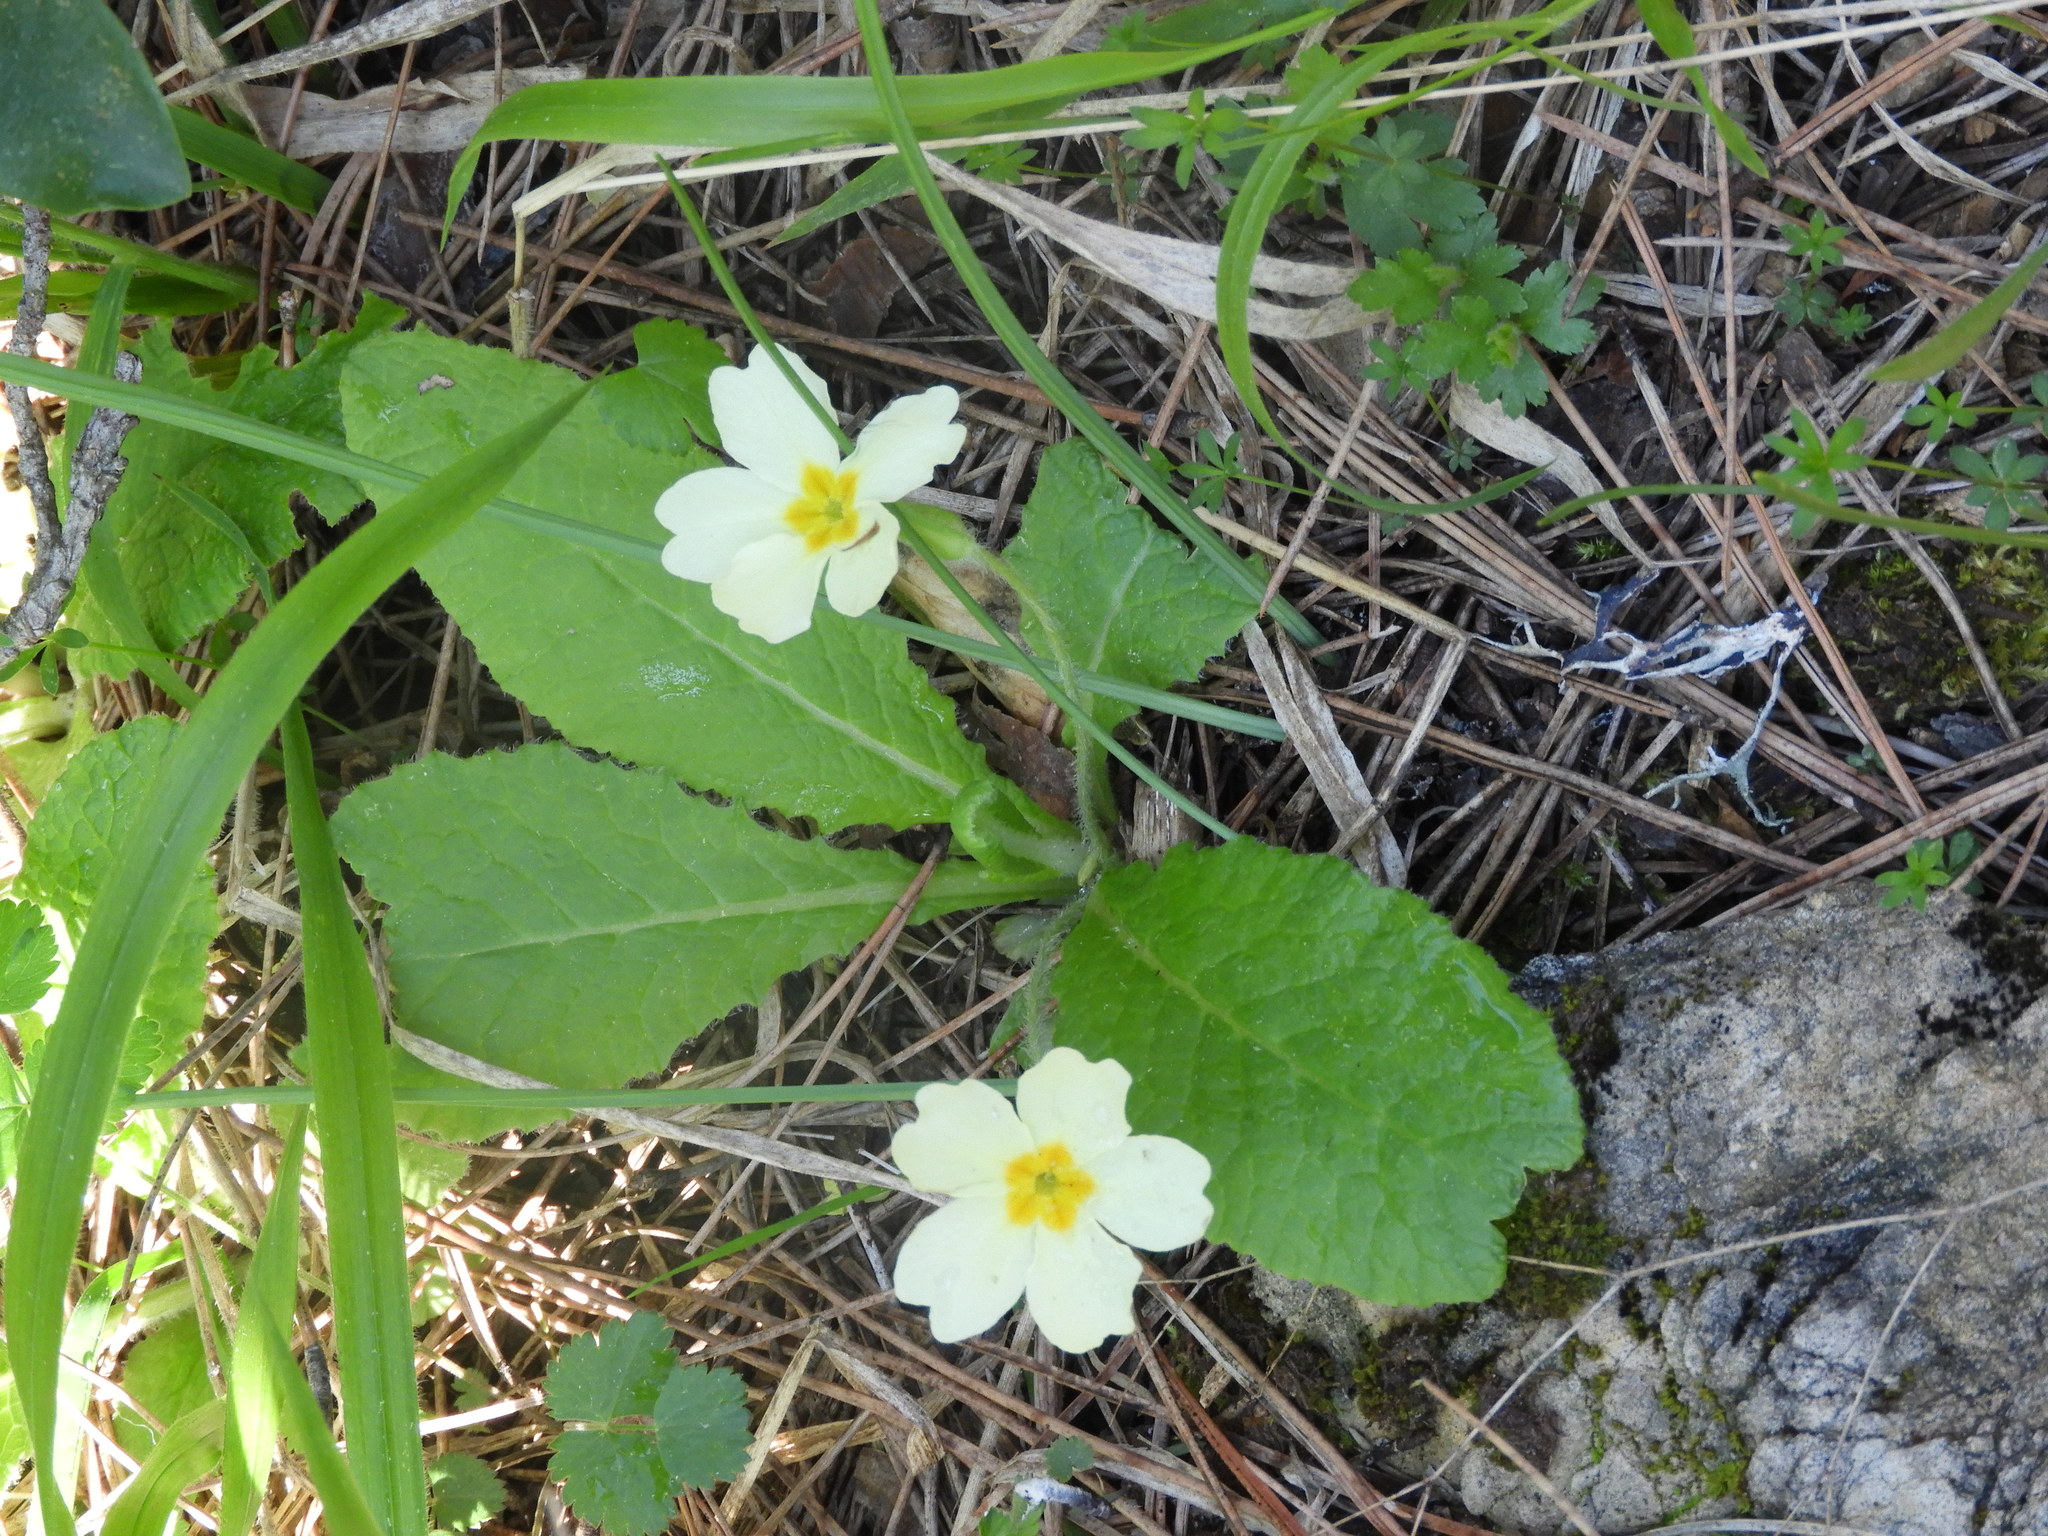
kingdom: Plantae
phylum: Tracheophyta
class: Magnoliopsida
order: Ericales
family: Primulaceae
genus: Primula
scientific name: Primula vulgaris
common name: Primrose
